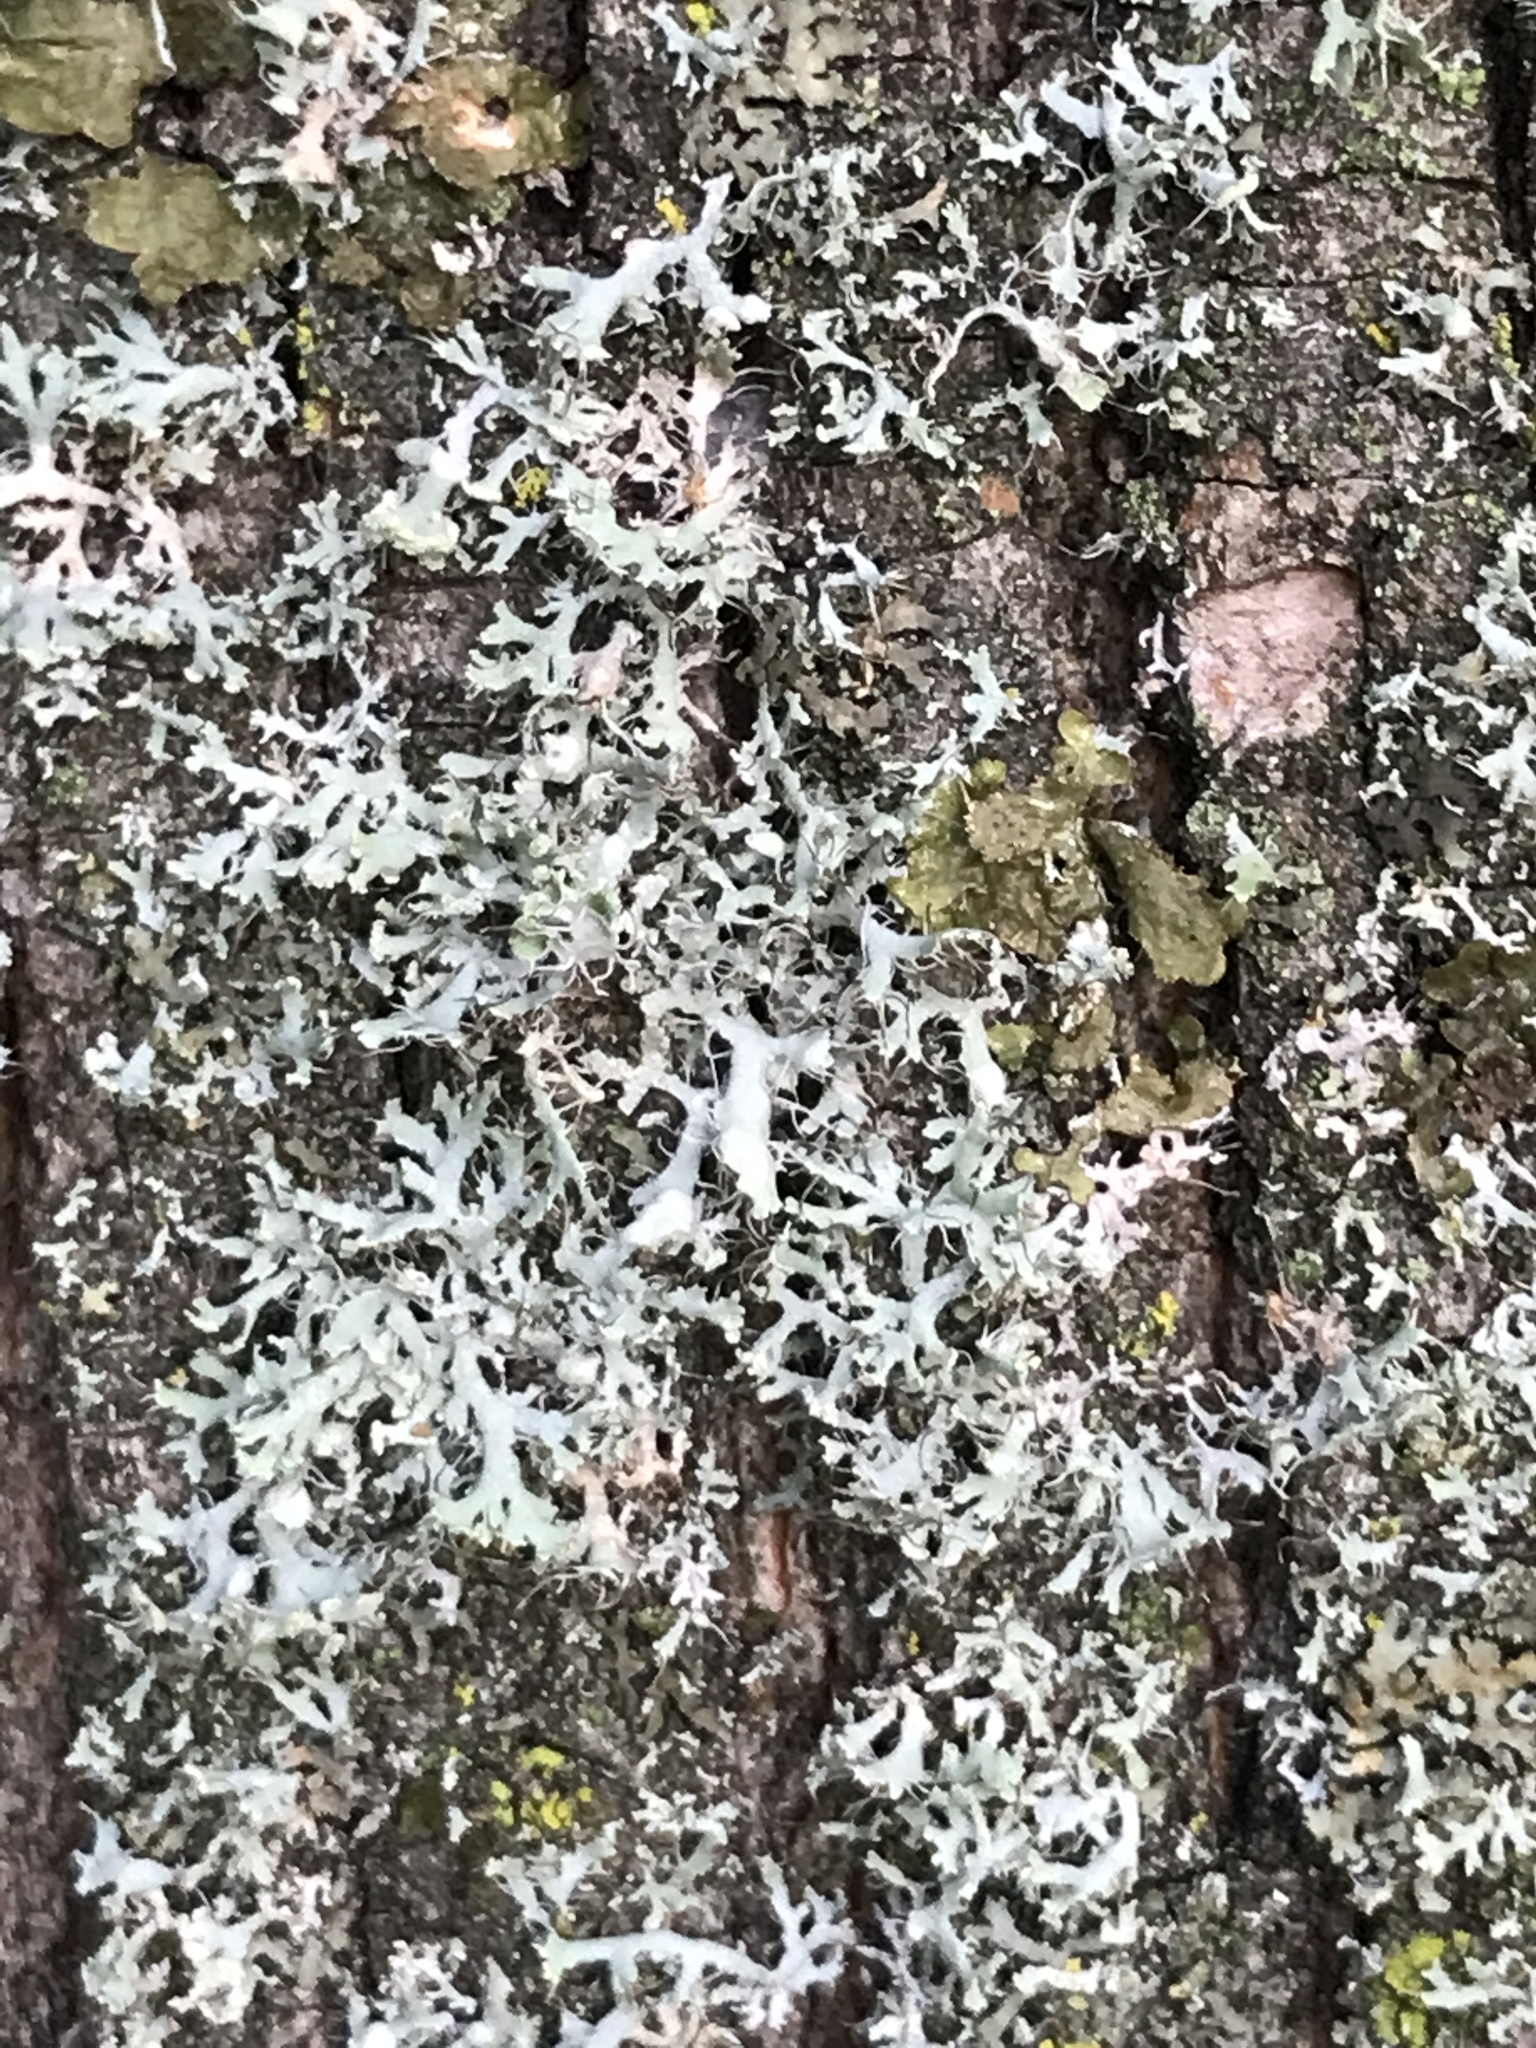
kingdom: Fungi
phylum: Ascomycota
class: Lecanoromycetes
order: Caliciales
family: Physciaceae
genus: Physcia
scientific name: Physcia tenella
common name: Fringed rosette lichen
